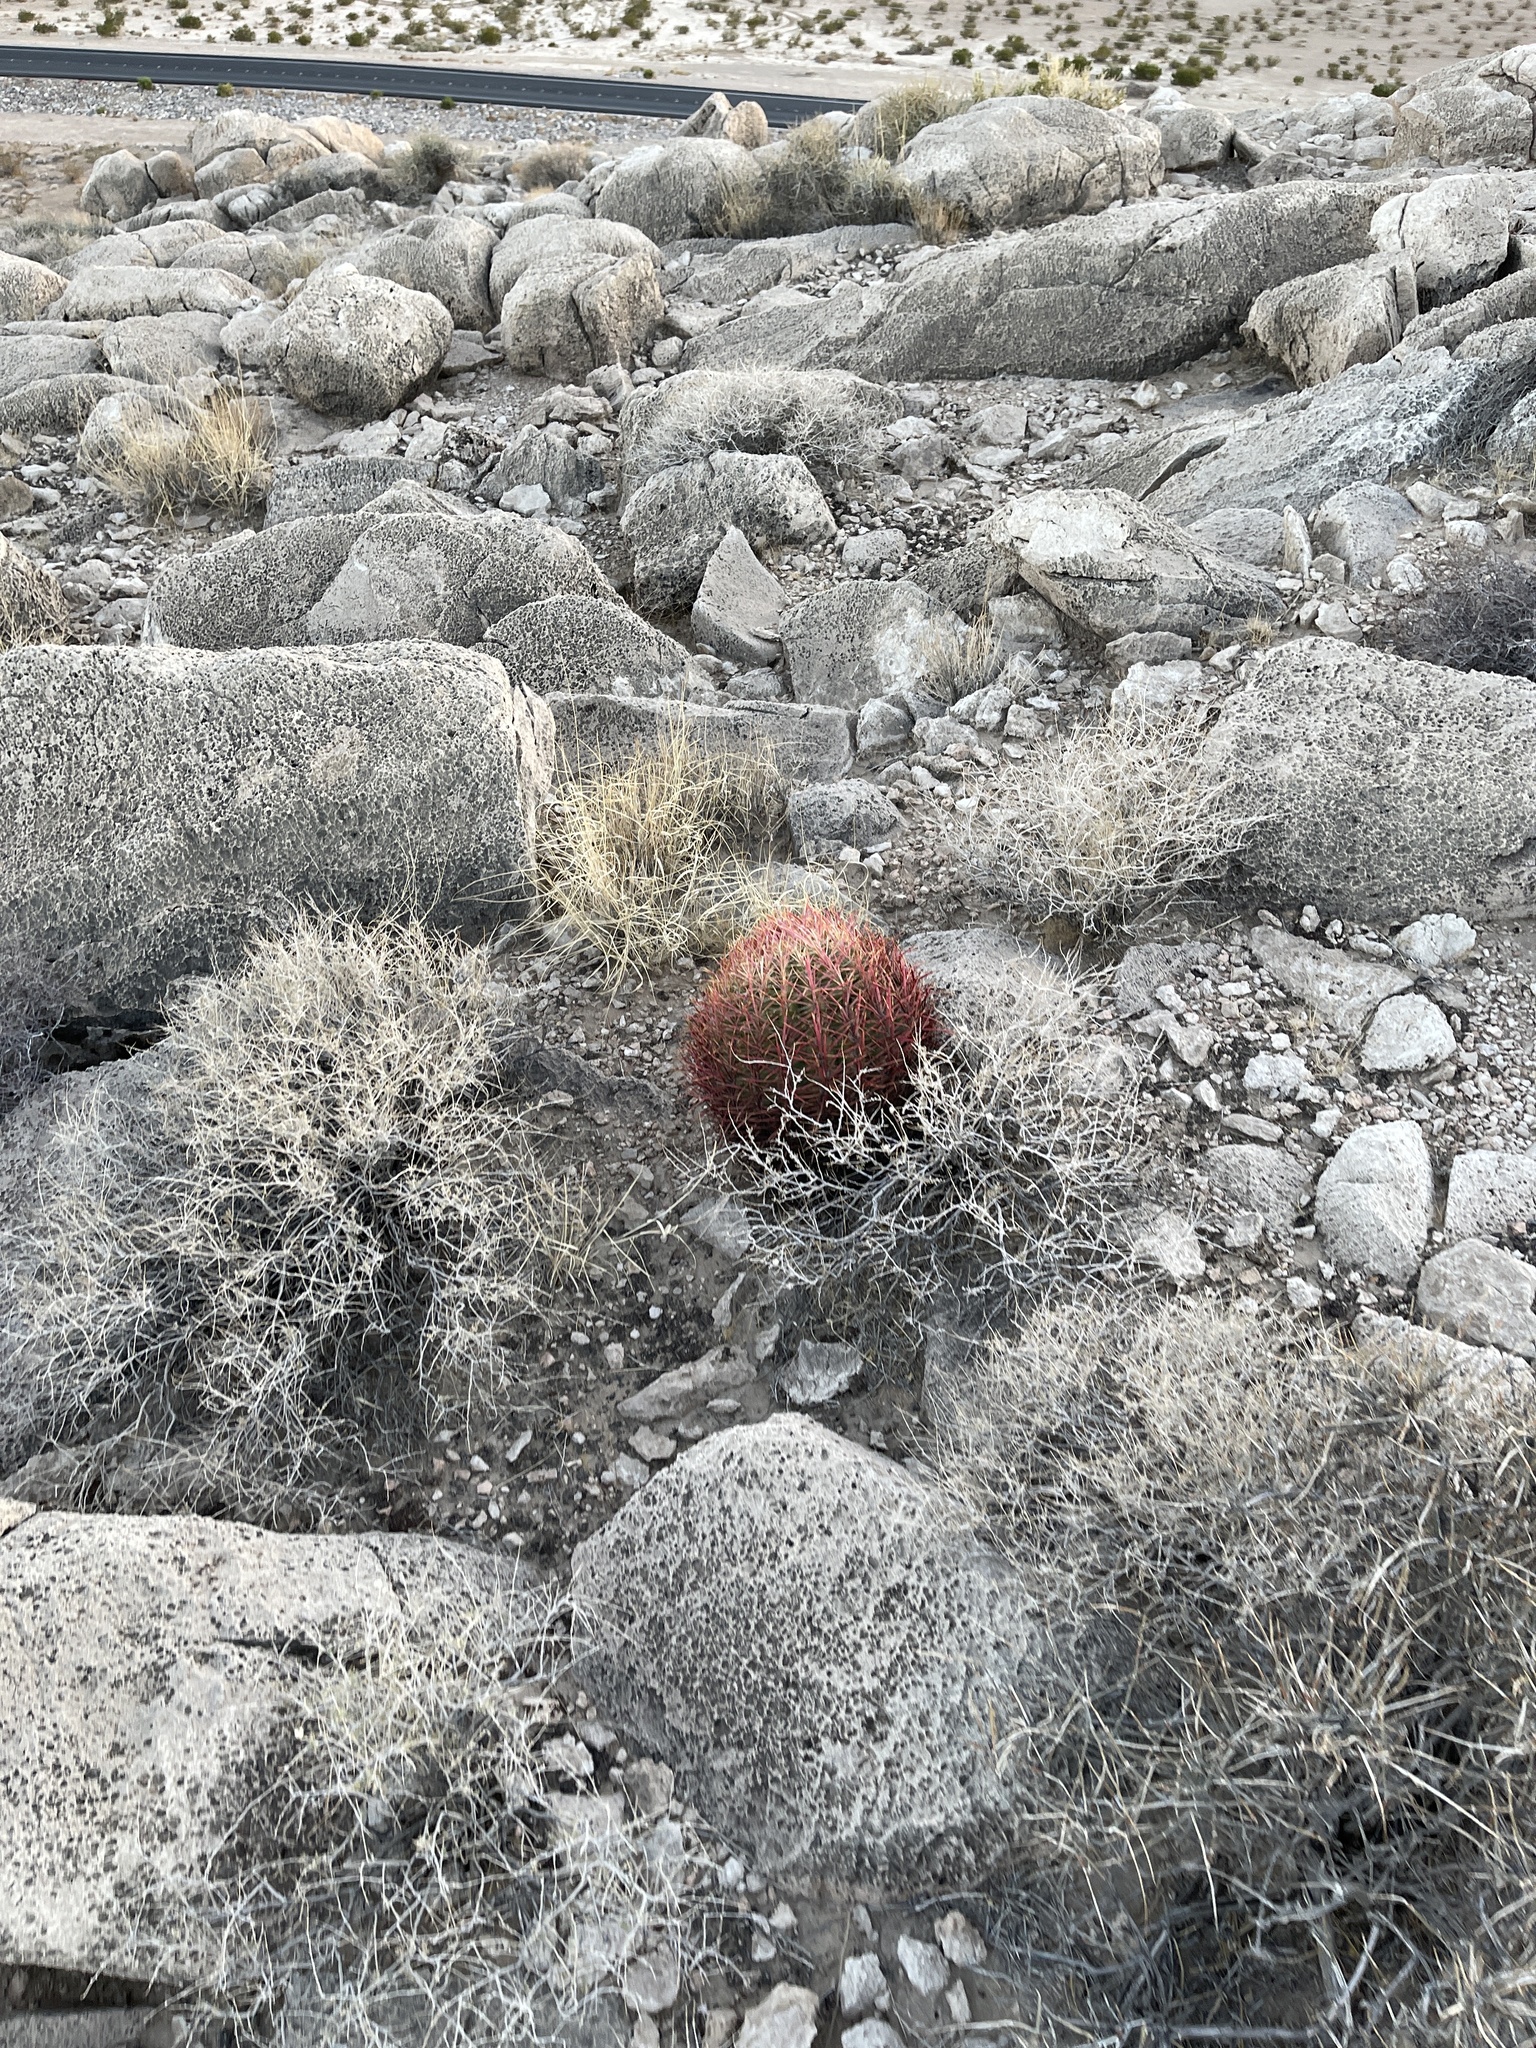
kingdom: Plantae
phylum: Tracheophyta
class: Magnoliopsida
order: Caryophyllales
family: Cactaceae
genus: Ferocactus
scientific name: Ferocactus cylindraceus
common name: California barrel cactus
